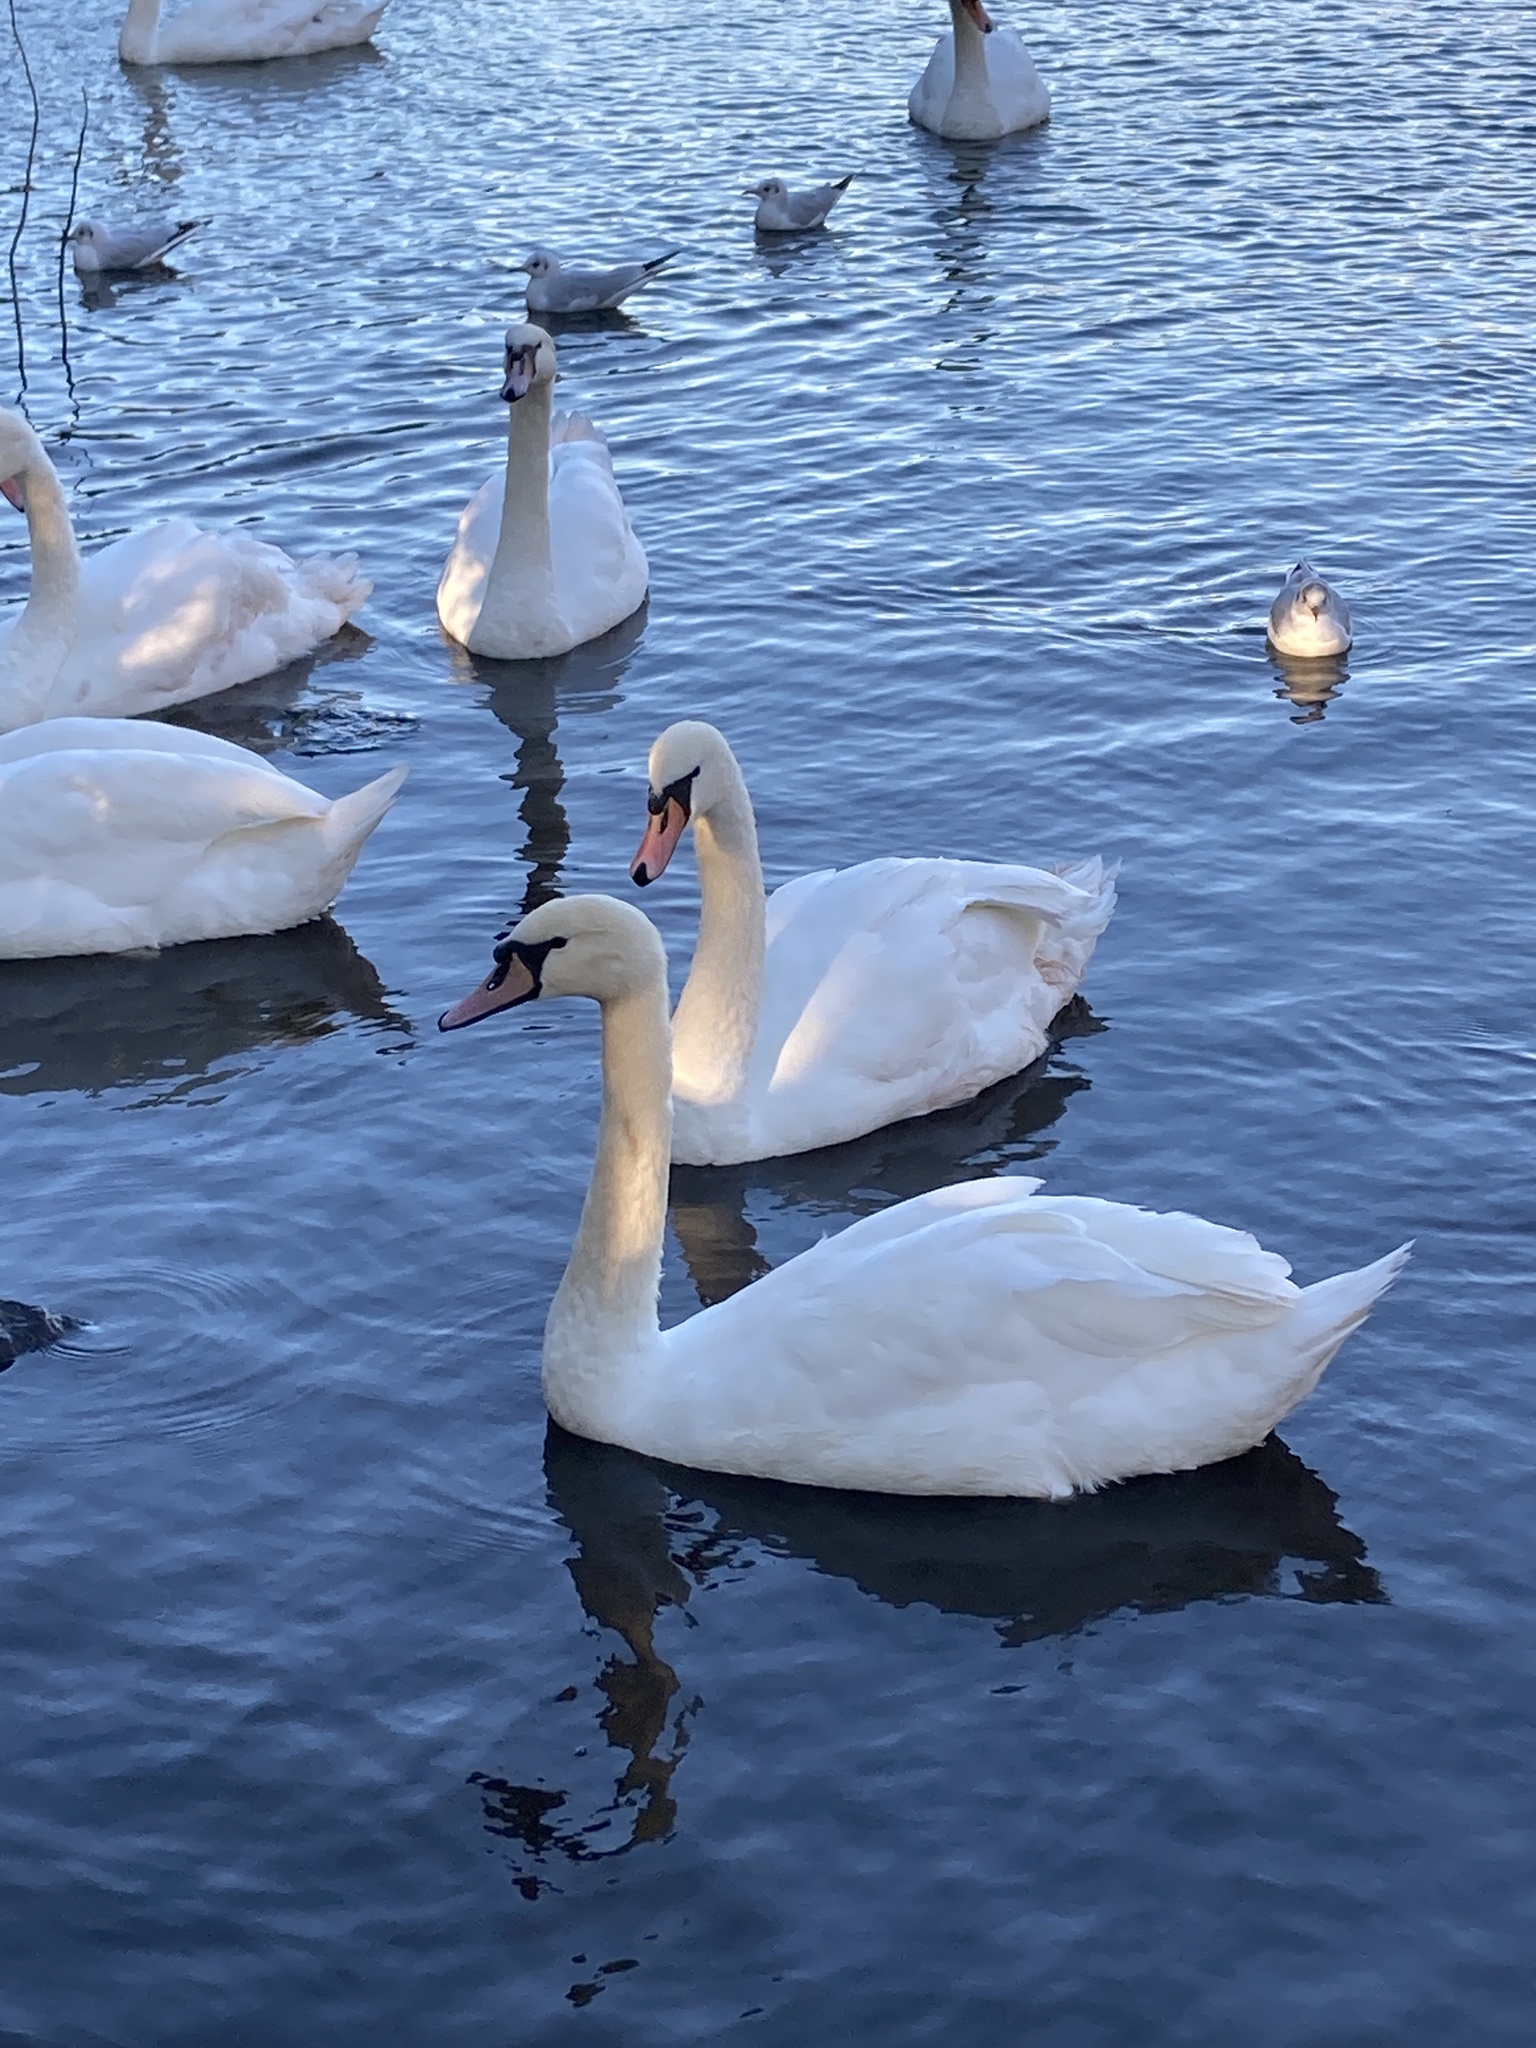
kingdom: Animalia
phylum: Chordata
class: Aves
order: Anseriformes
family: Anatidae
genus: Cygnus
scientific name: Cygnus olor
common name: Mute swan
